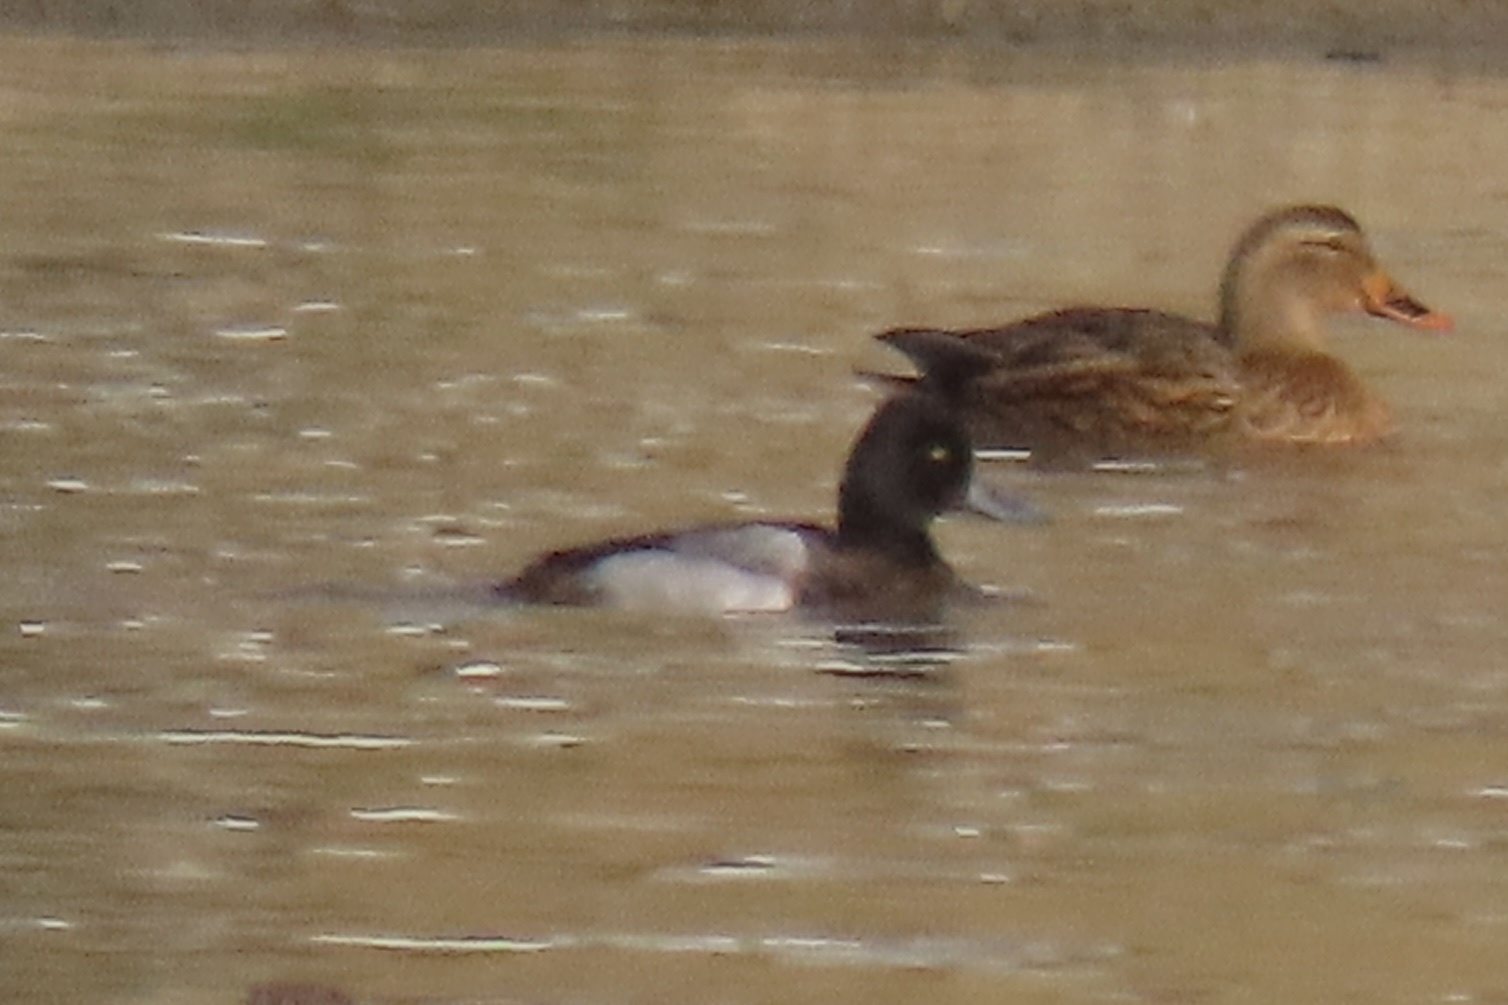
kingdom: Animalia
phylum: Chordata
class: Aves
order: Anseriformes
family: Anatidae
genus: Aythya
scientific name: Aythya affinis
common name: Lesser scaup
